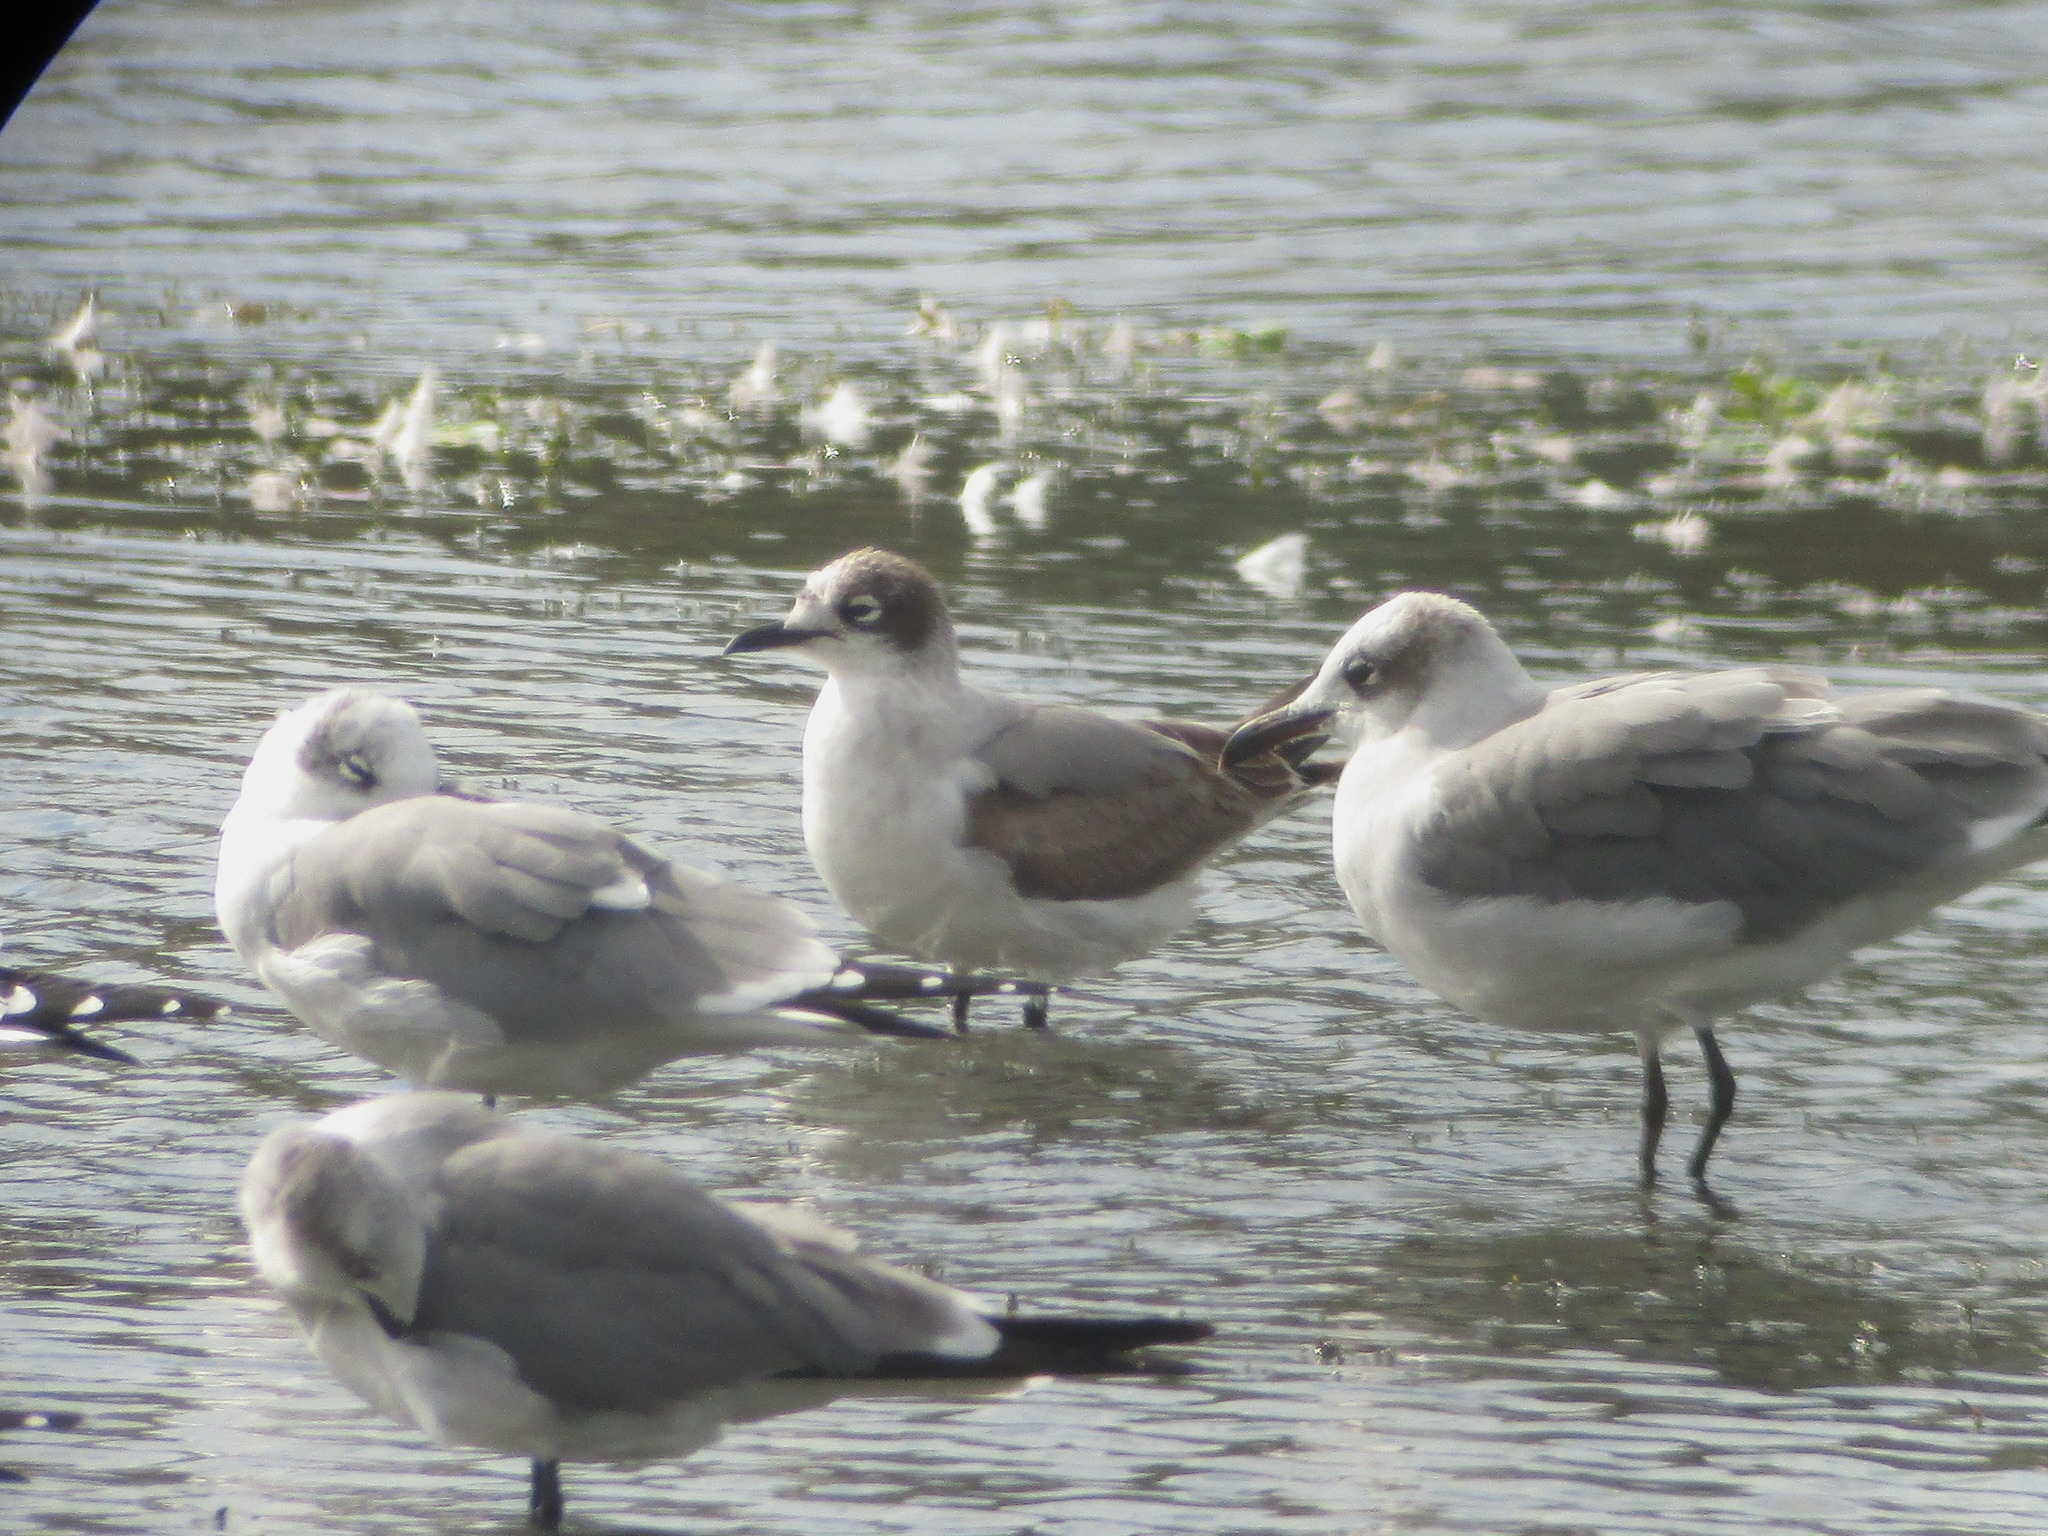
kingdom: Animalia
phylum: Chordata
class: Aves
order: Charadriiformes
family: Laridae
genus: Leucophaeus
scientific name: Leucophaeus pipixcan
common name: Franklin's gull
